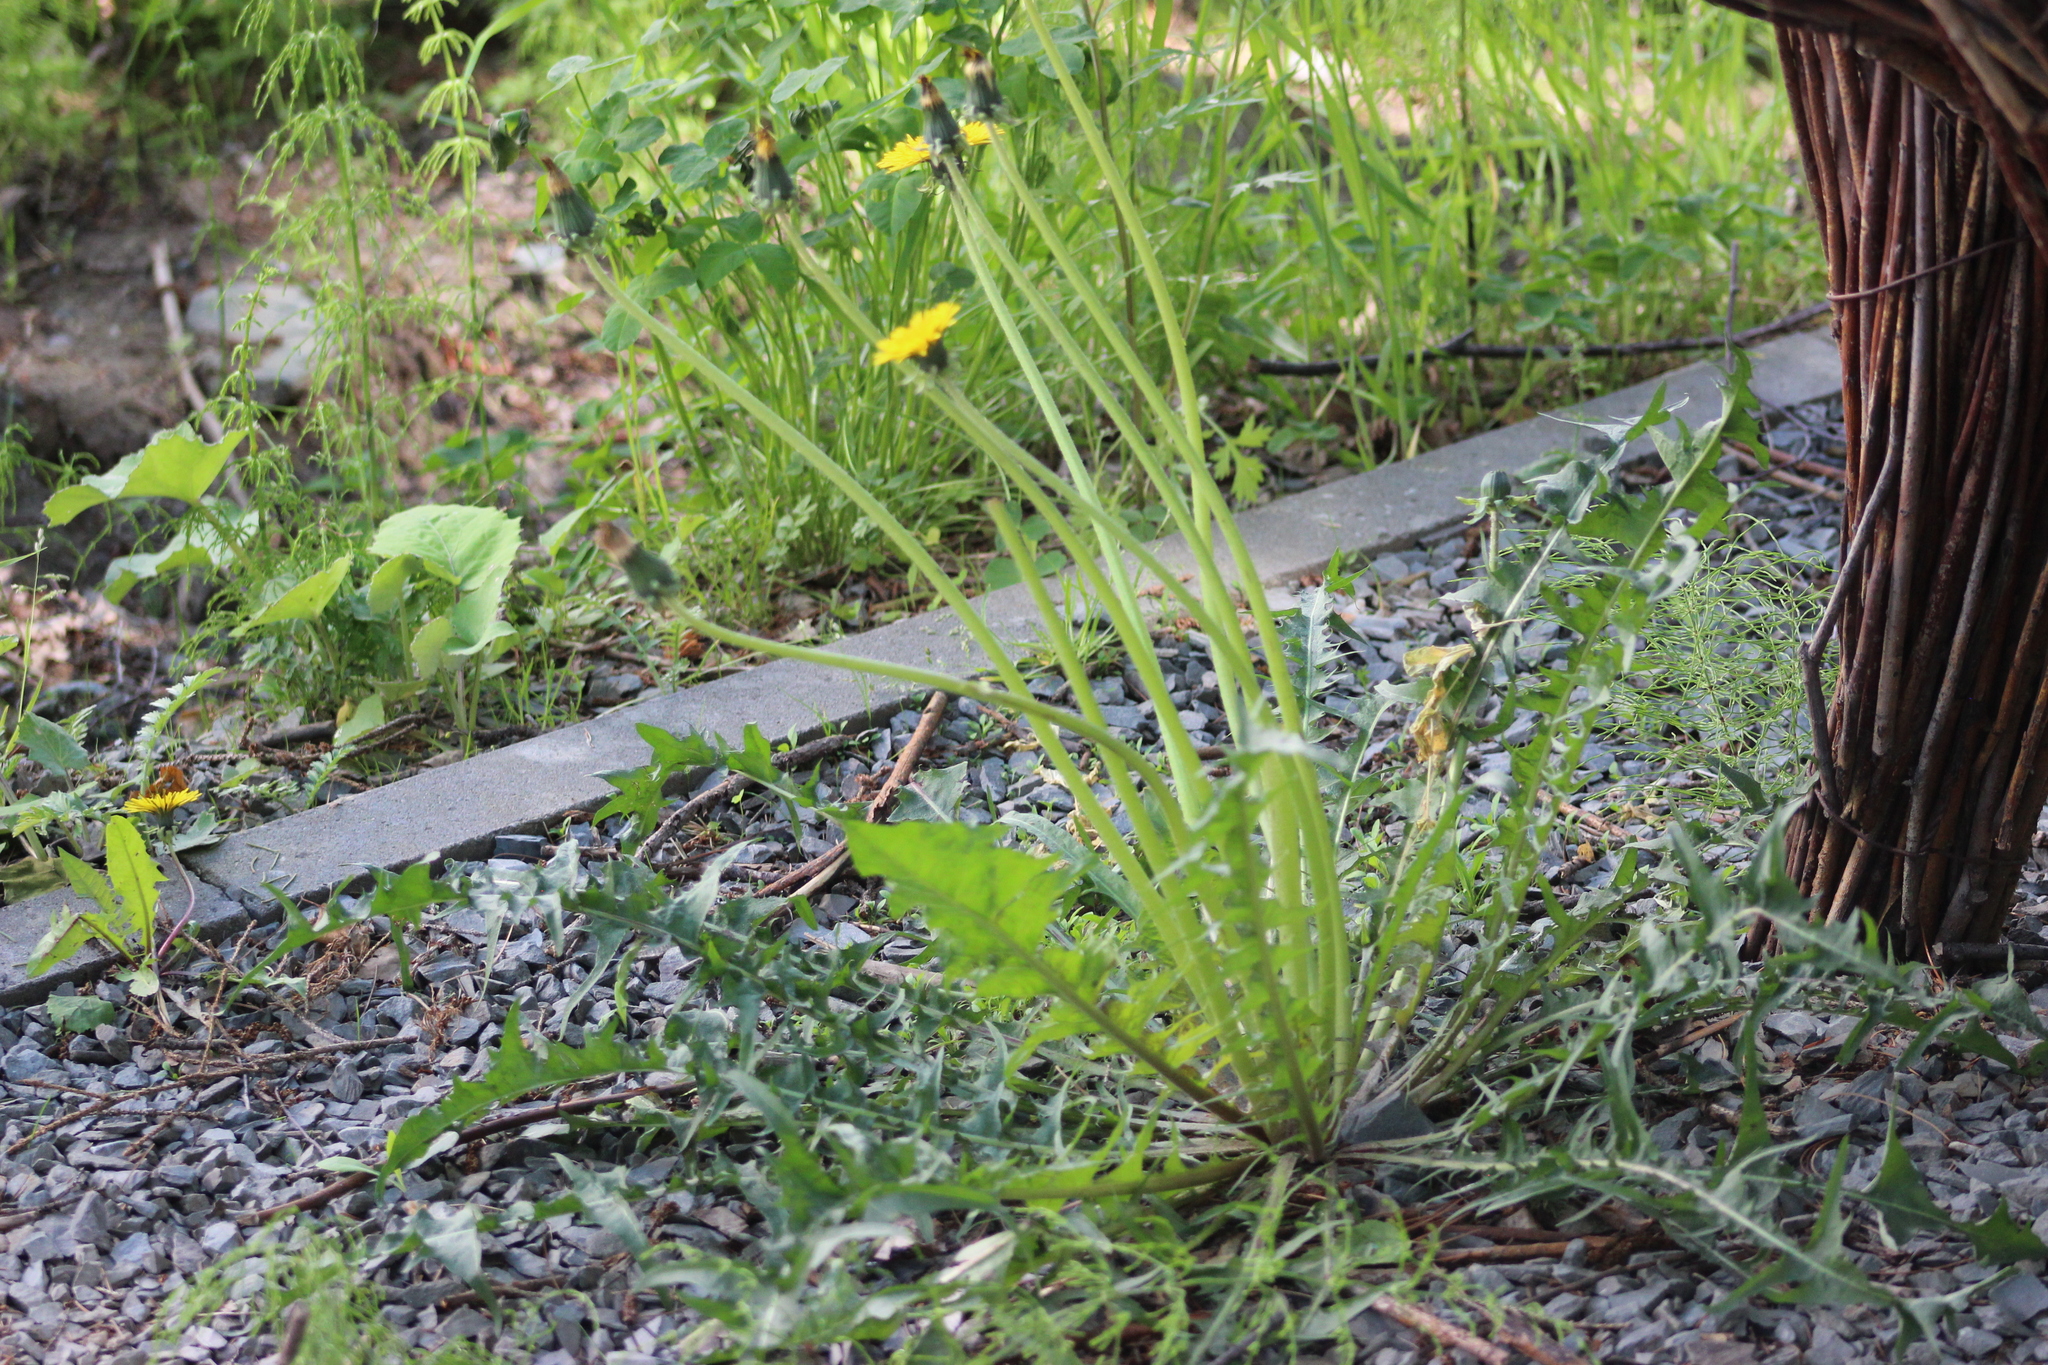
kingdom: Plantae
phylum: Tracheophyta
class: Magnoliopsida
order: Asterales
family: Asteraceae
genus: Taraxacum
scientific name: Taraxacum scariosum
